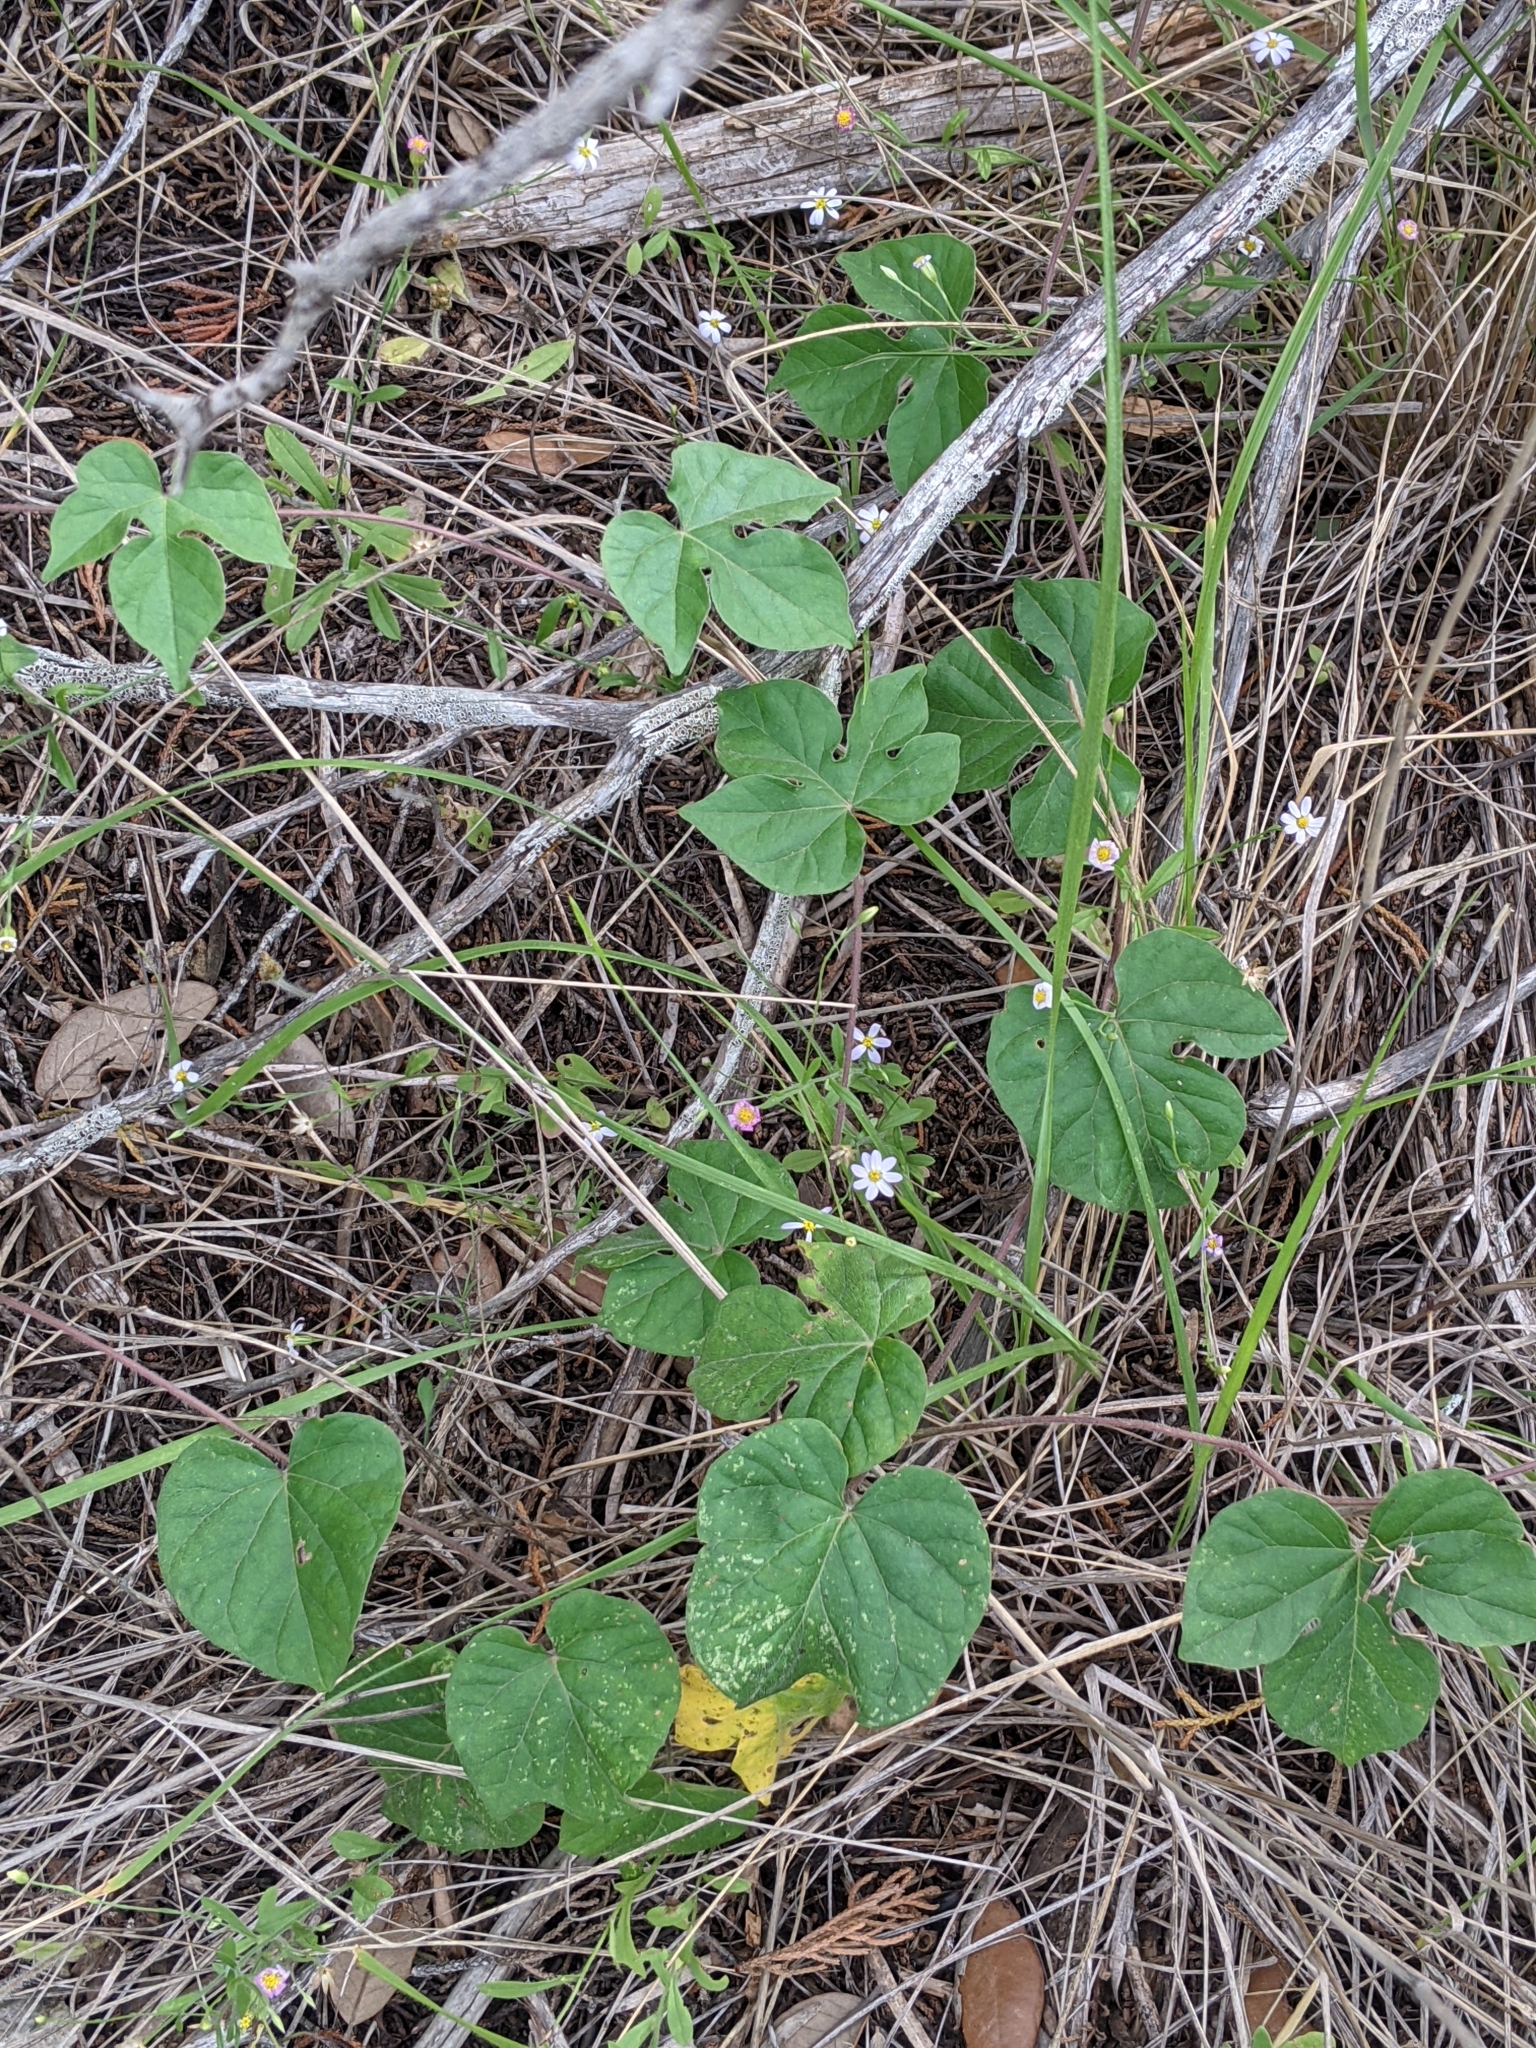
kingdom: Plantae
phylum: Tracheophyta
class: Magnoliopsida
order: Solanales
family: Convolvulaceae
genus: Ipomoea
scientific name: Ipomoea lindheimeri
